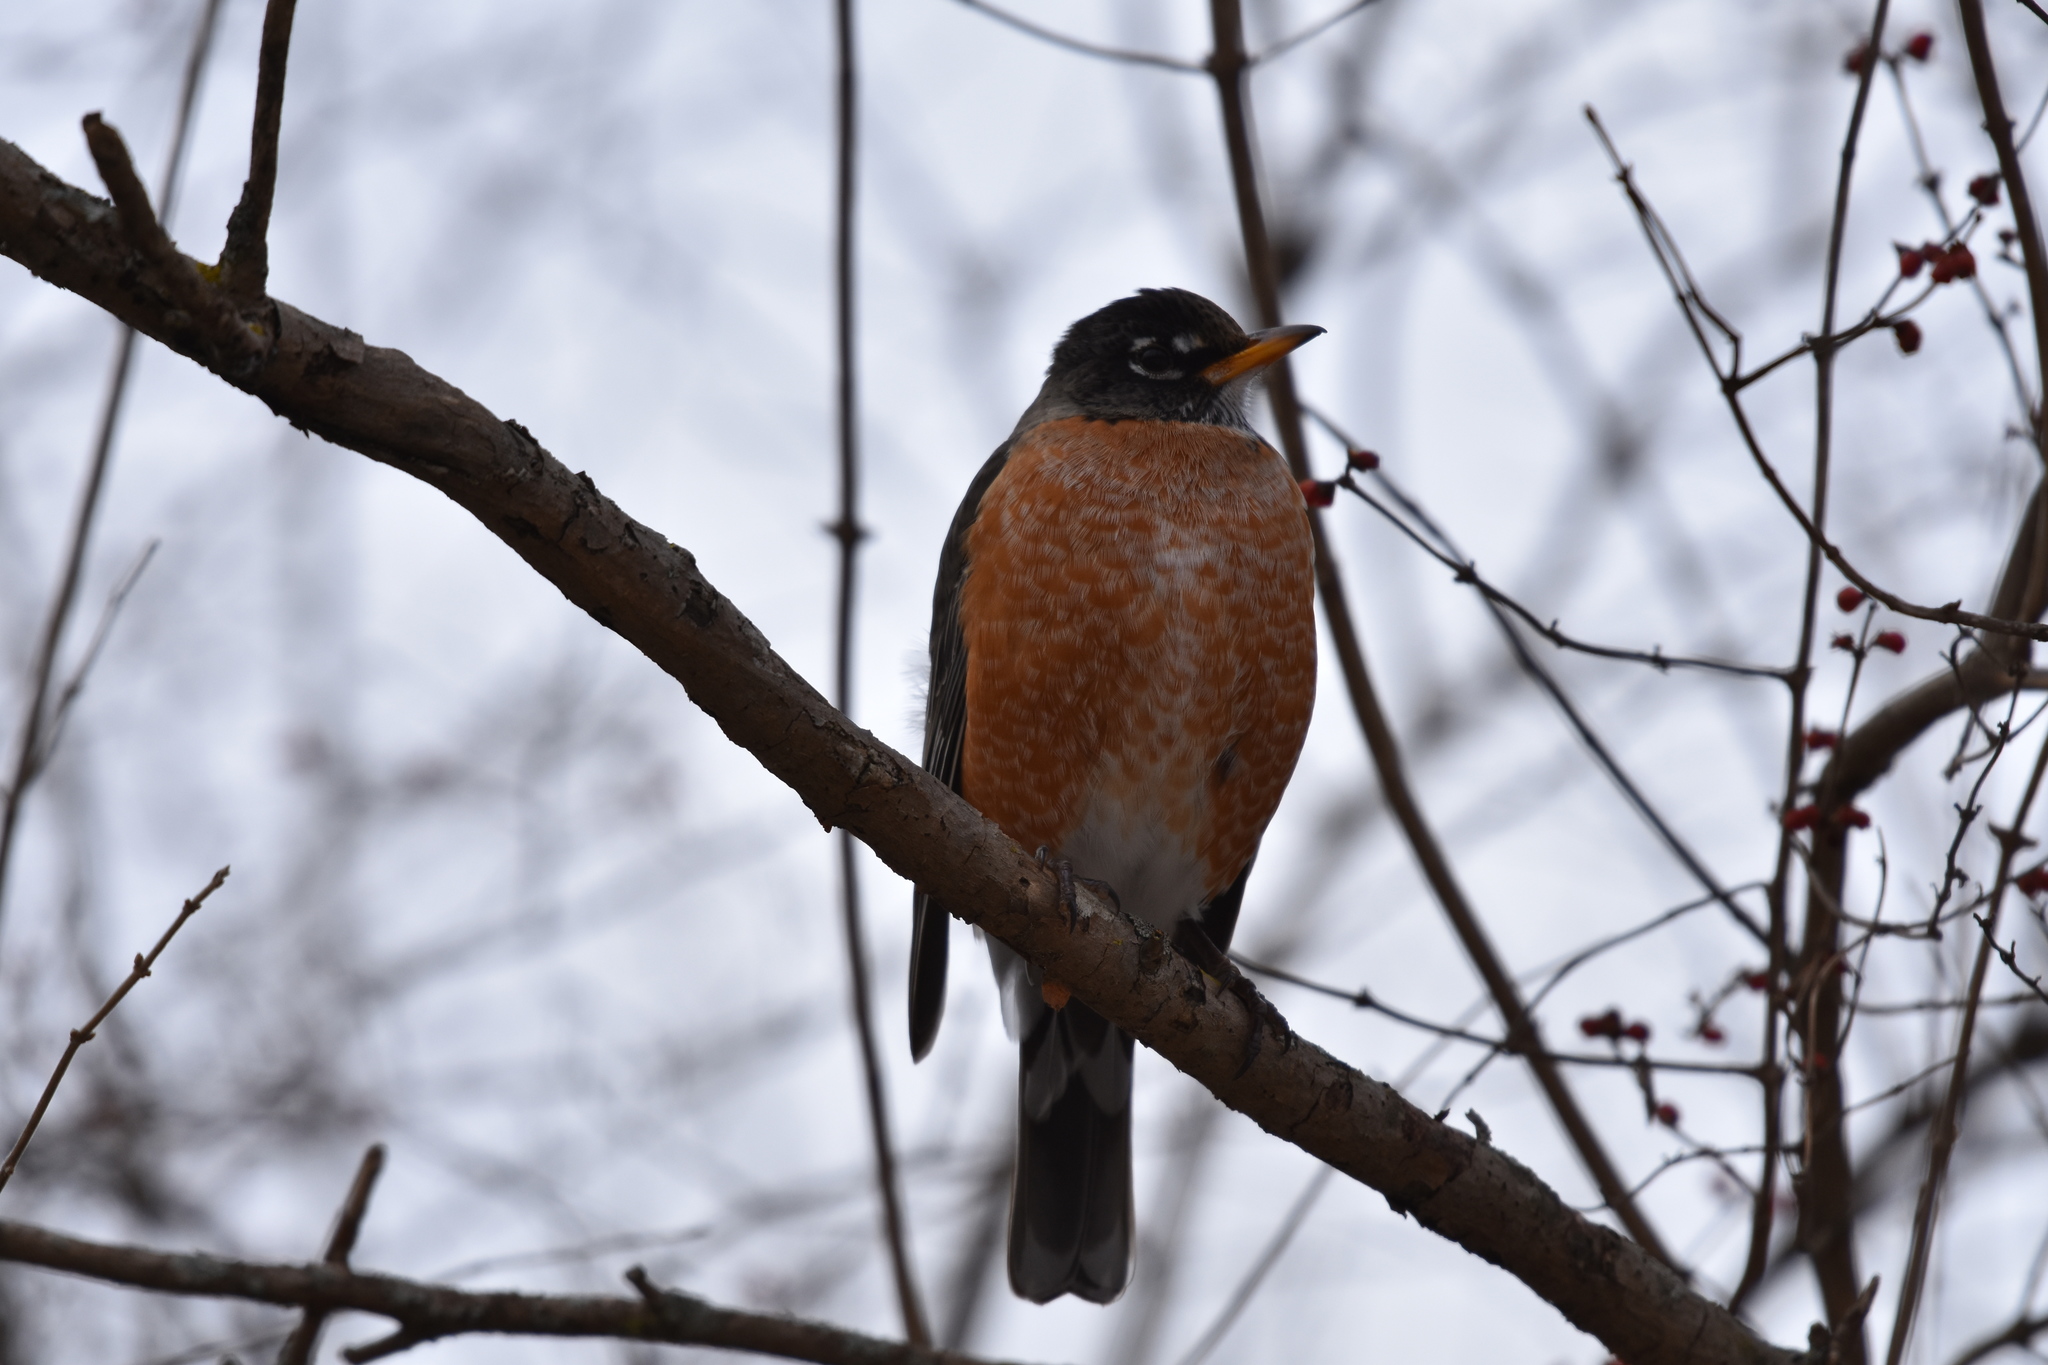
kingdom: Animalia
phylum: Chordata
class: Aves
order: Passeriformes
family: Turdidae
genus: Turdus
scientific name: Turdus migratorius
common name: American robin
